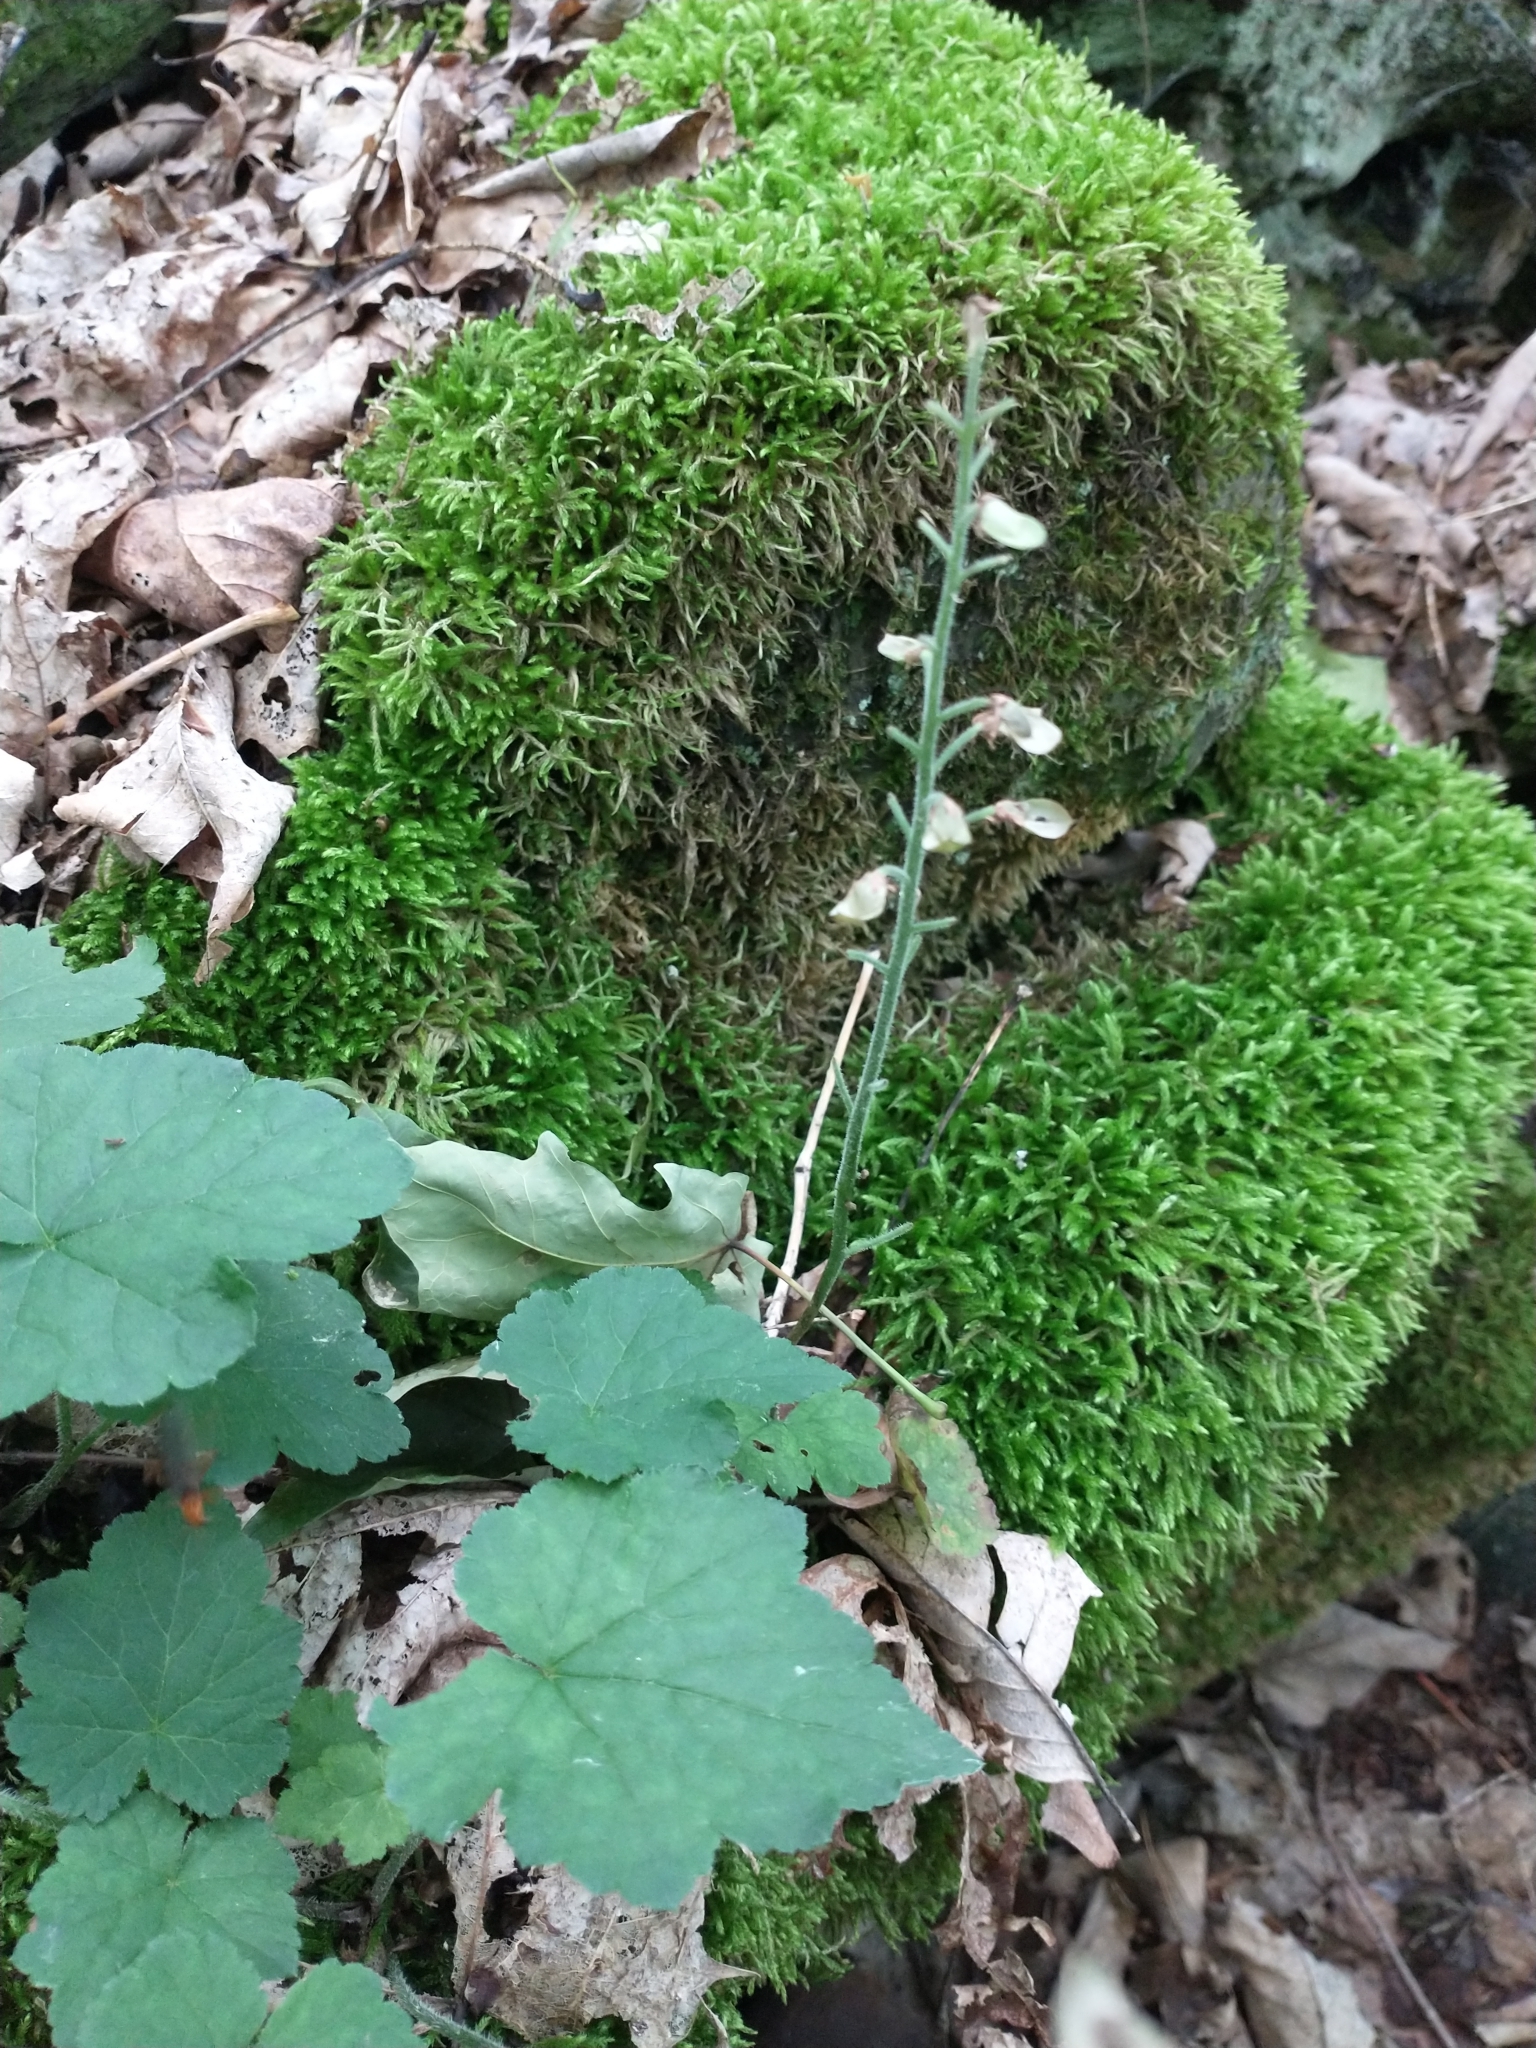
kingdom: Plantae
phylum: Tracheophyta
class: Magnoliopsida
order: Saxifragales
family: Saxifragaceae
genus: Tiarella
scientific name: Tiarella stolonifera
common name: Stoloniferous foamflower
